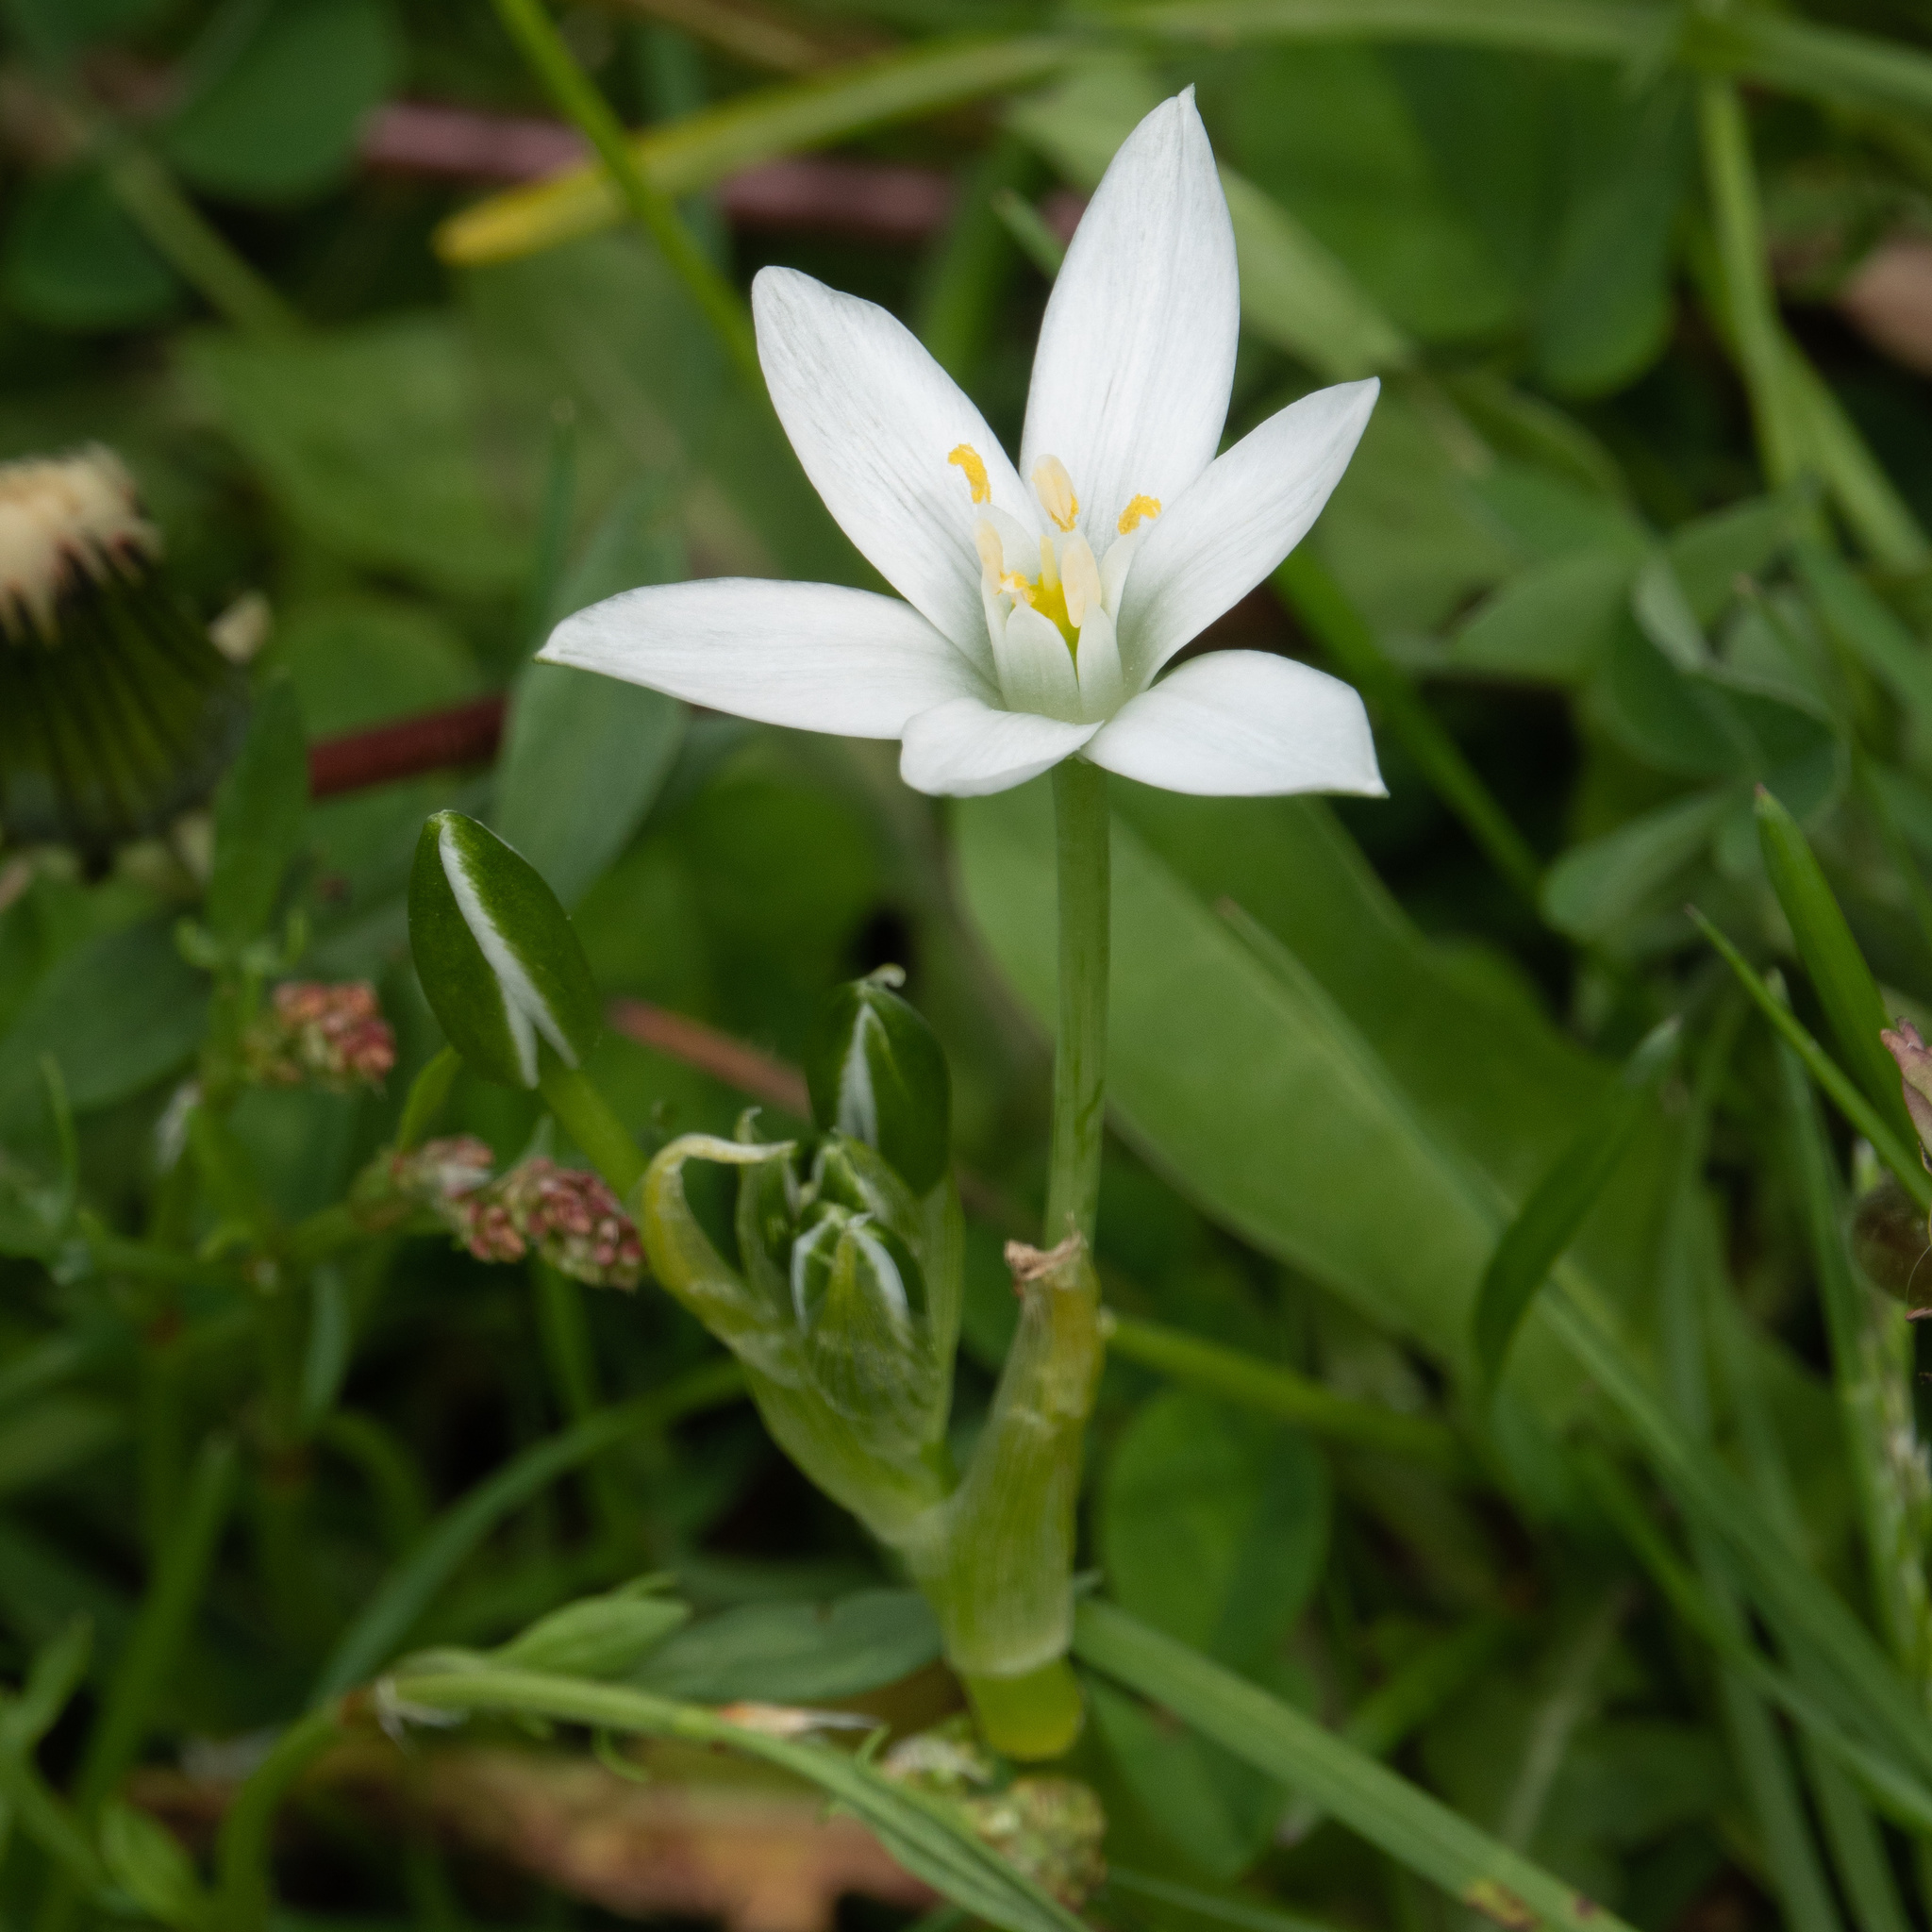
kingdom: Plantae
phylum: Tracheophyta
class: Liliopsida
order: Asparagales
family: Asparagaceae
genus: Ornithogalum
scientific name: Ornithogalum umbellatum
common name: Garden star-of-bethlehem
